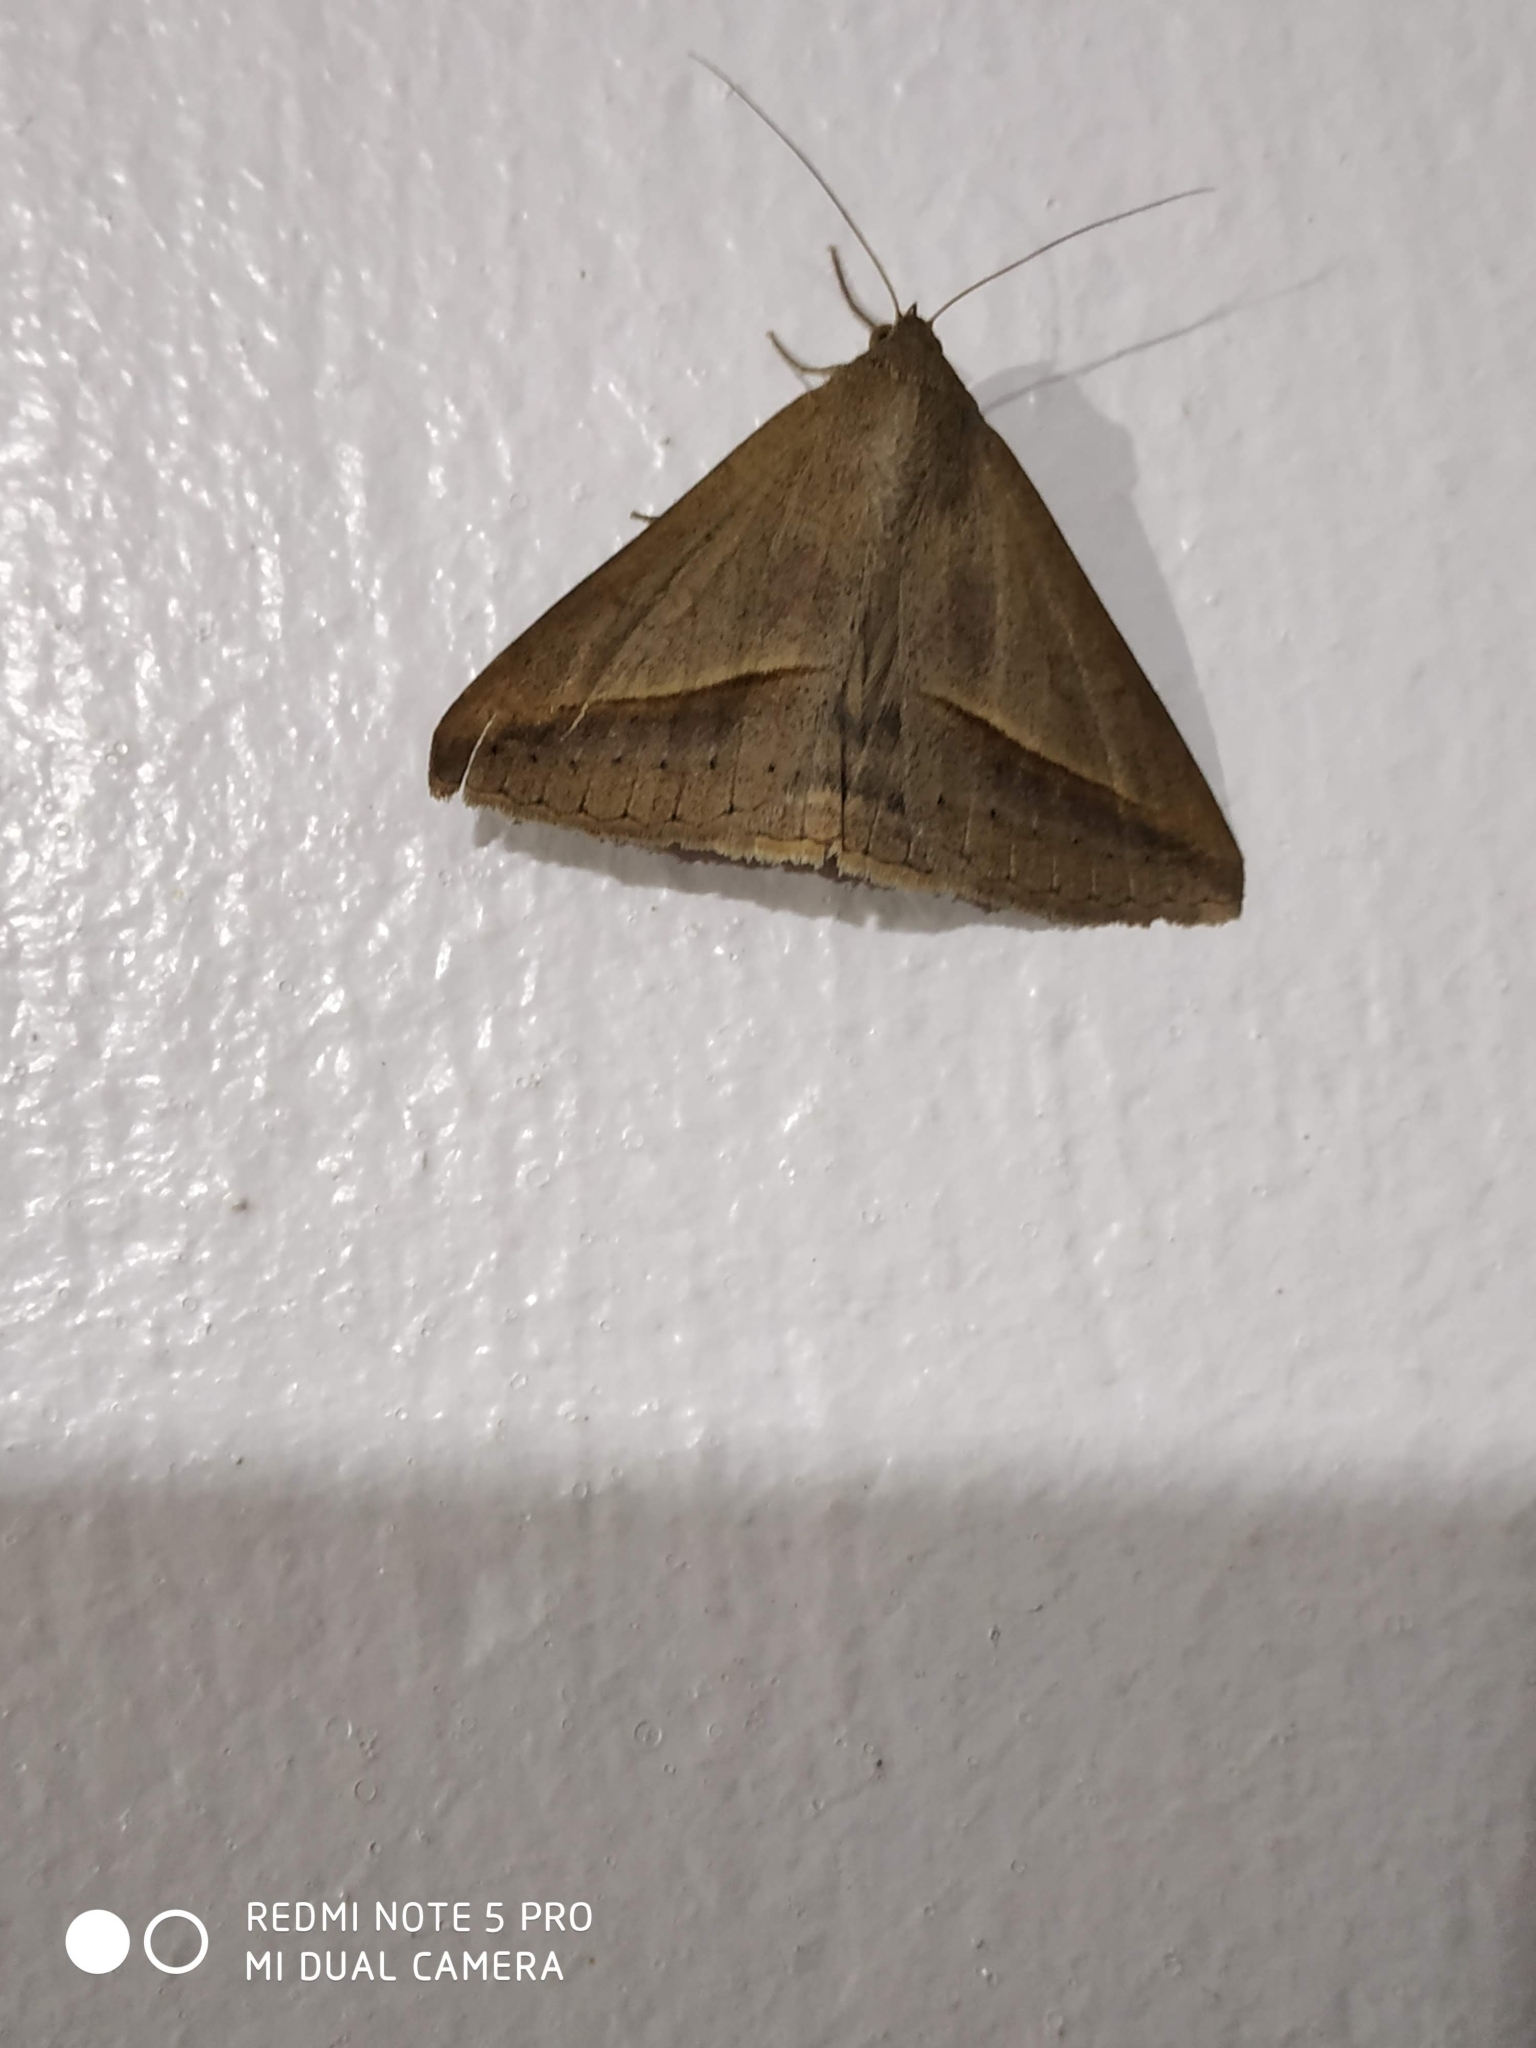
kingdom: Animalia
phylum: Arthropoda
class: Insecta
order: Lepidoptera
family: Erebidae
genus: Mocis
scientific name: Mocis frugalis
